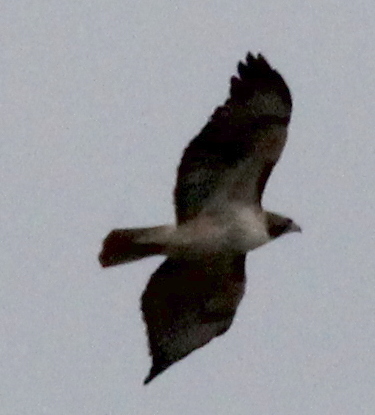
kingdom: Animalia
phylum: Chordata
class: Aves
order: Accipitriformes
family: Accipitridae
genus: Buteo
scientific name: Buteo jamaicensis
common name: Red-tailed hawk
